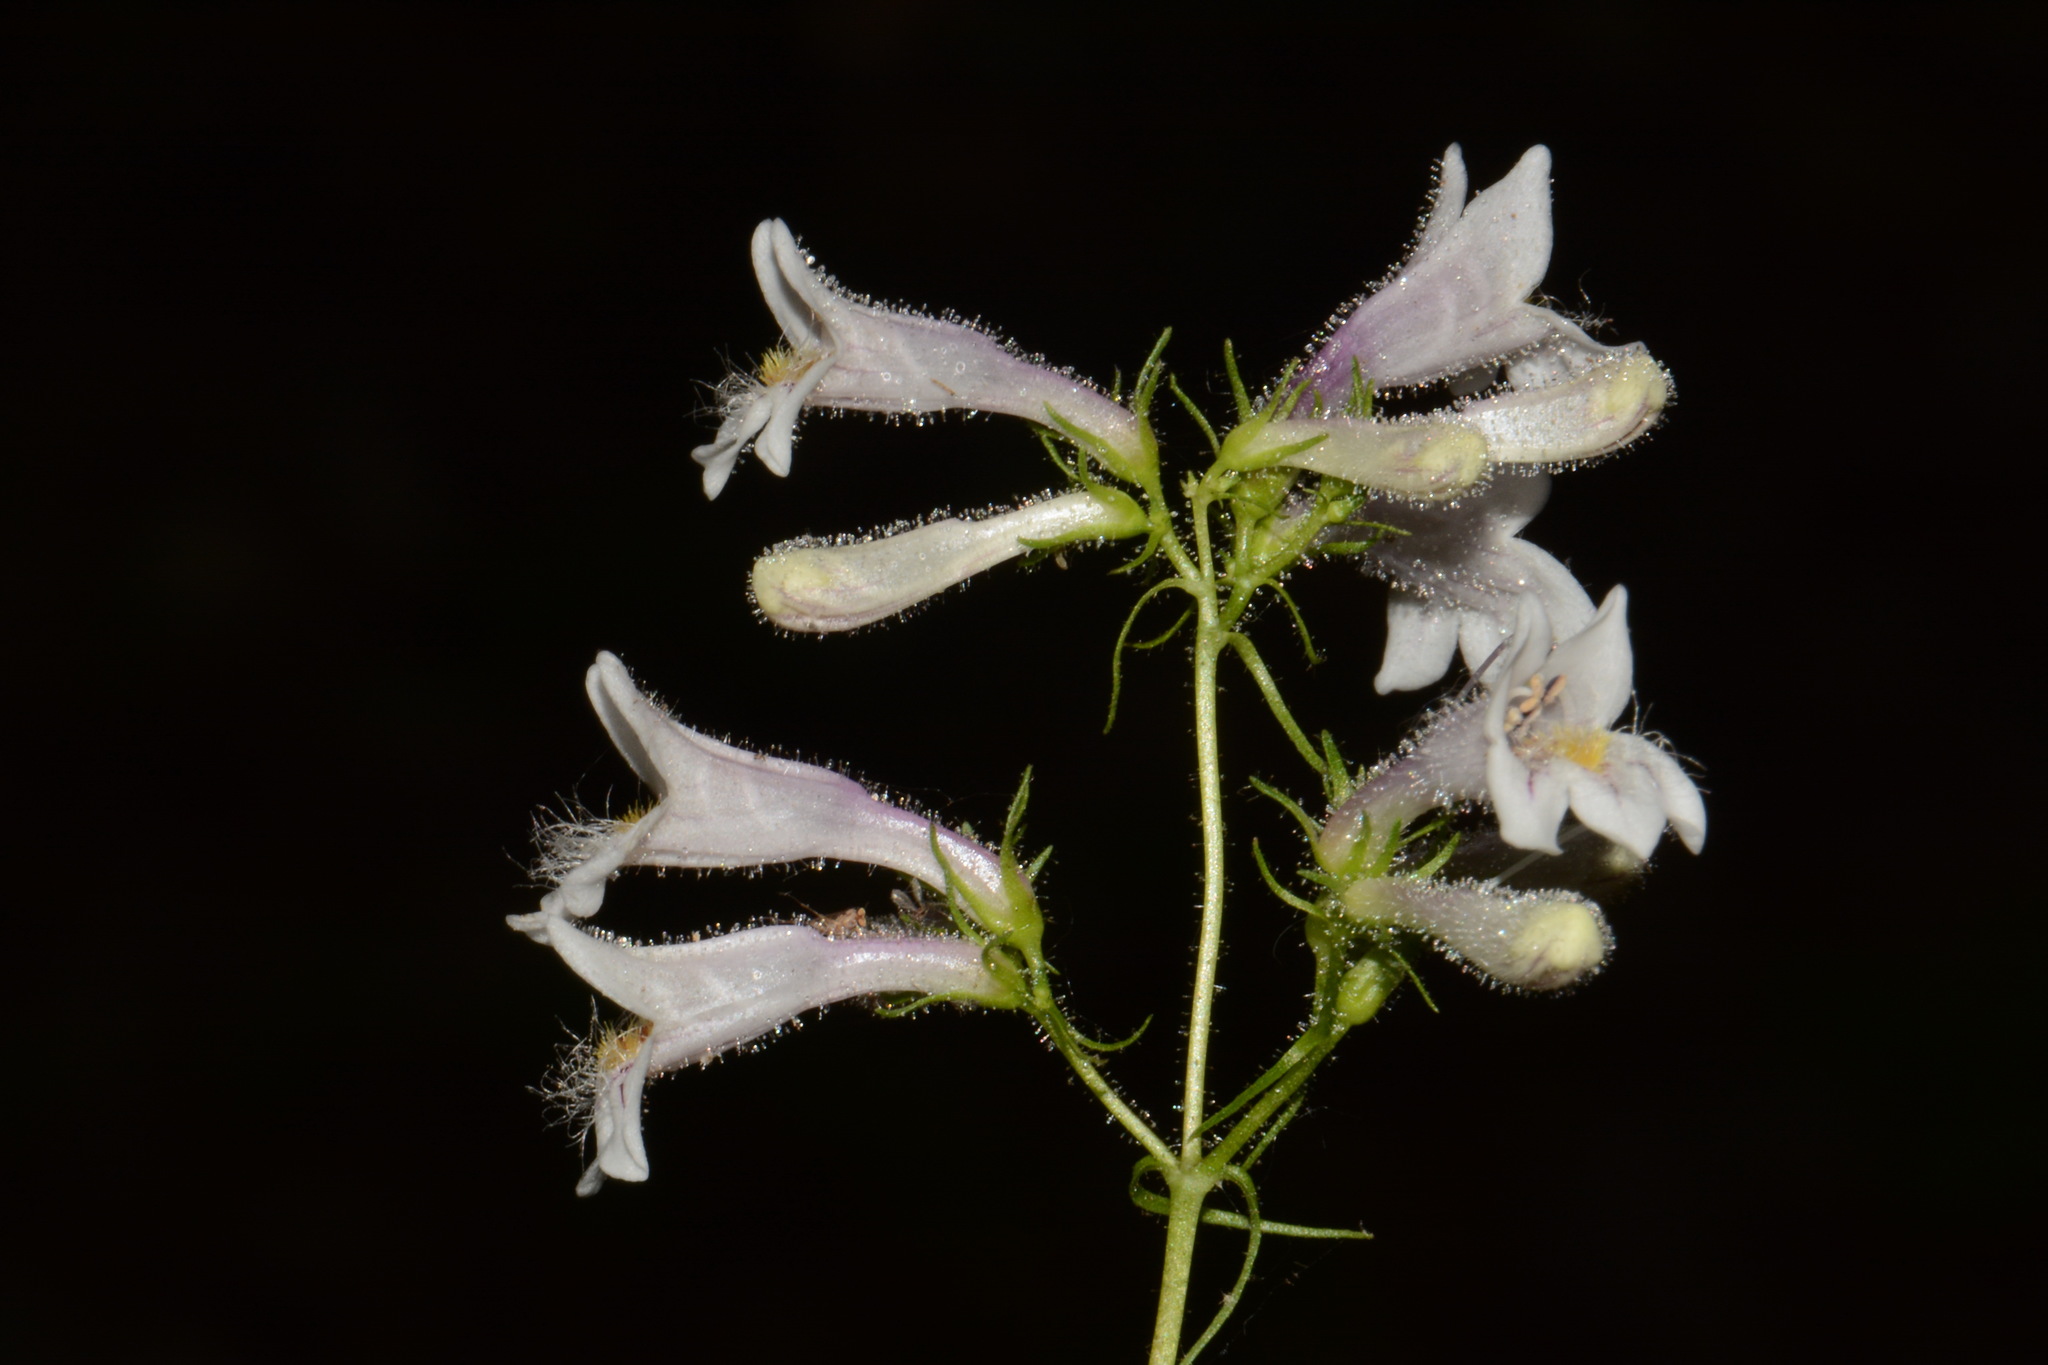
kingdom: Plantae
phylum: Tracheophyta
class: Magnoliopsida
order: Lamiales
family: Plantaginaceae
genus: Penstemon
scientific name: Penstemon kralii
